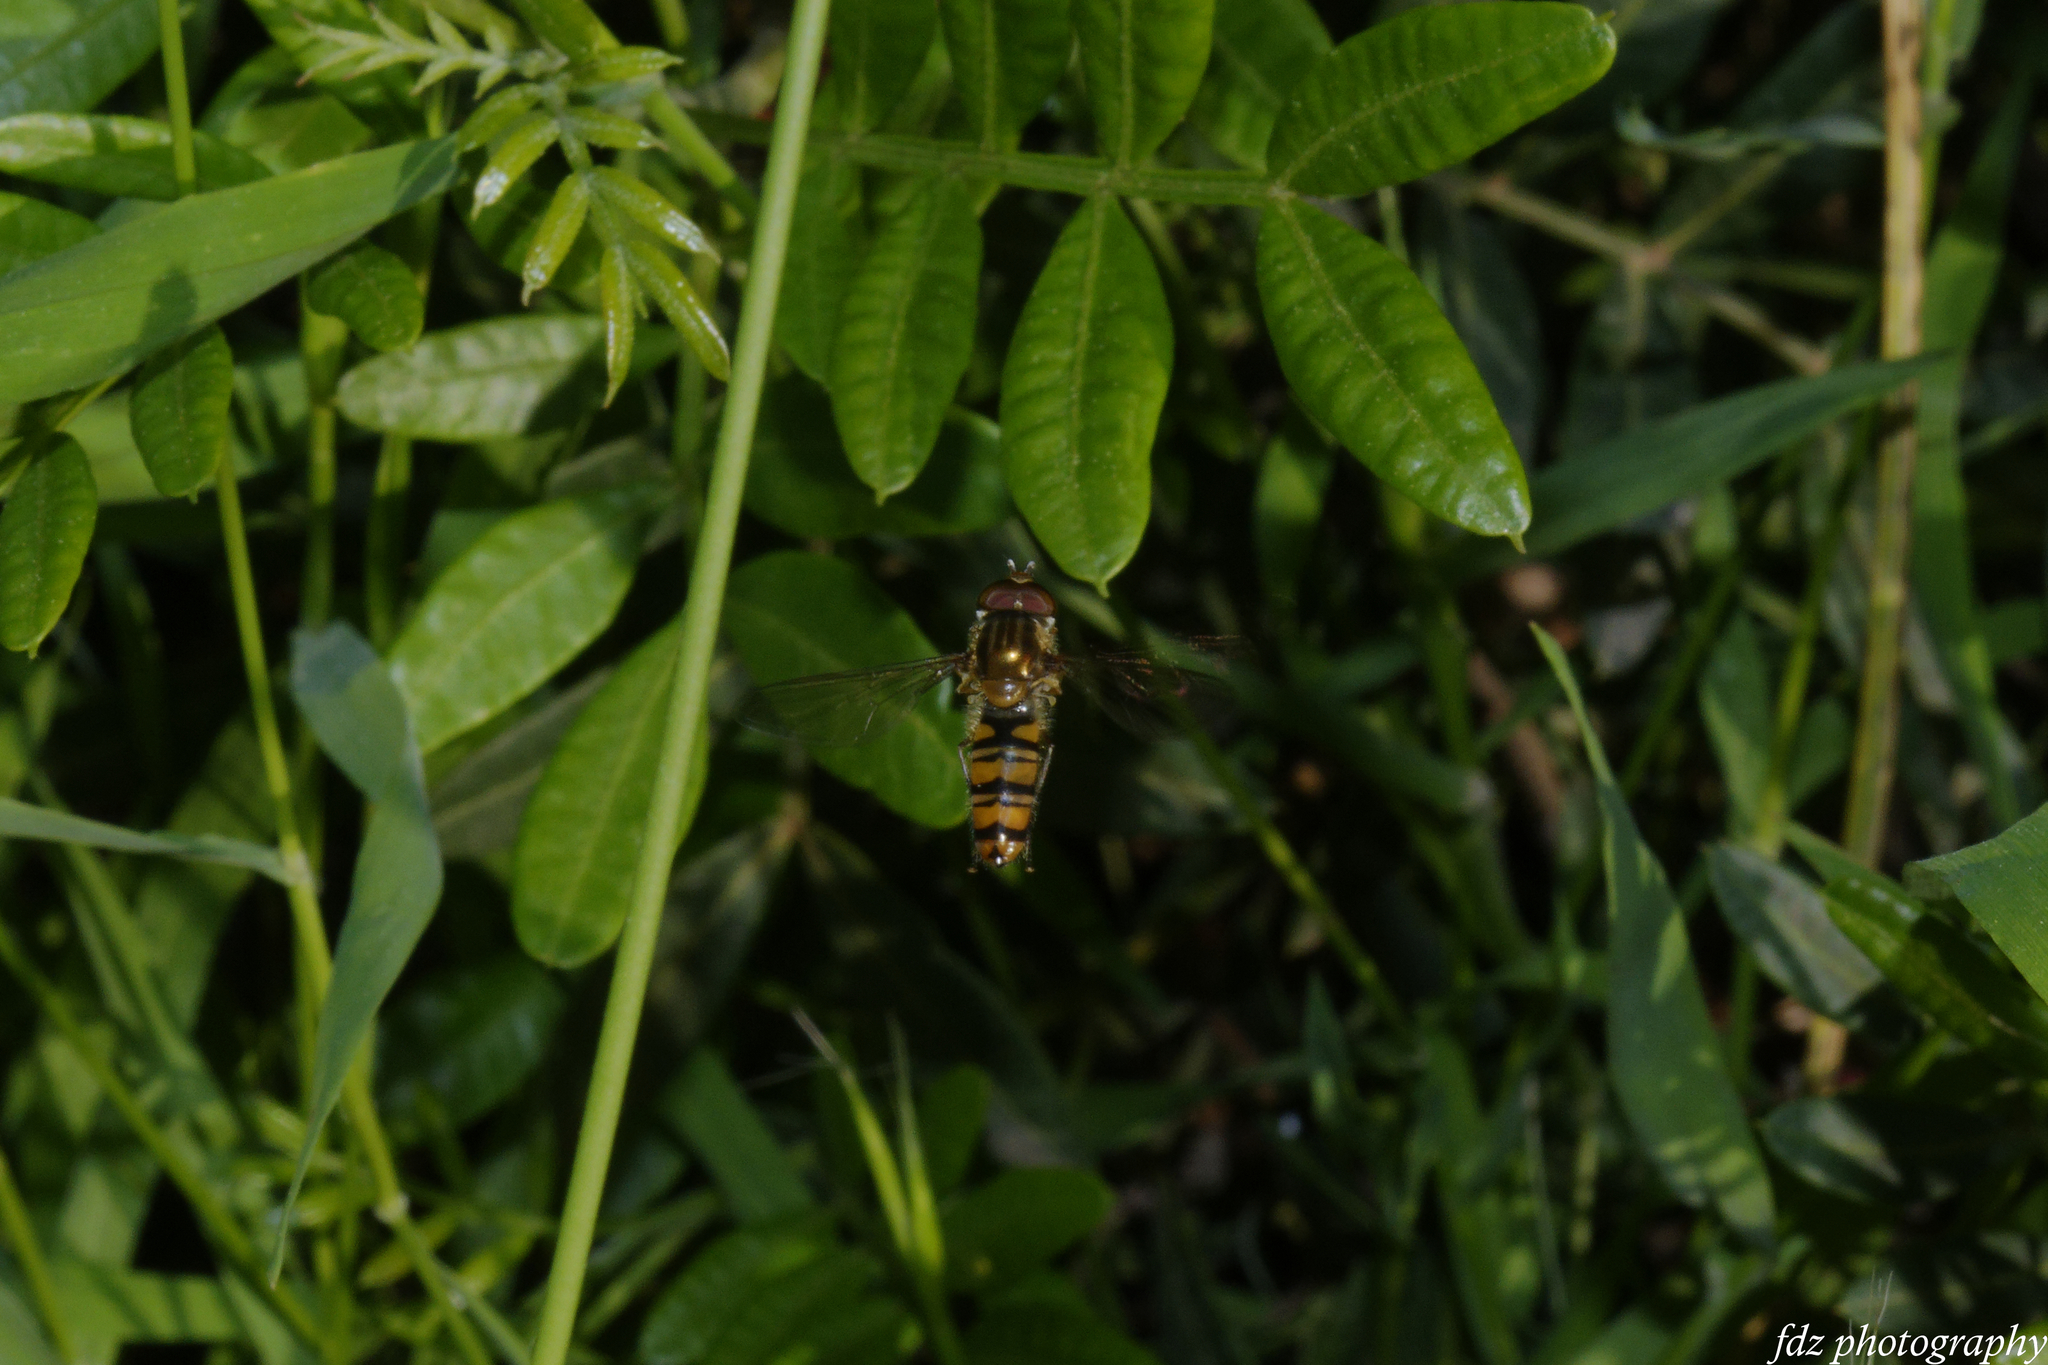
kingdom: Animalia
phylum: Arthropoda
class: Insecta
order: Diptera
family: Syrphidae
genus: Episyrphus
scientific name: Episyrphus balteatus
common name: Marmalade hoverfly
